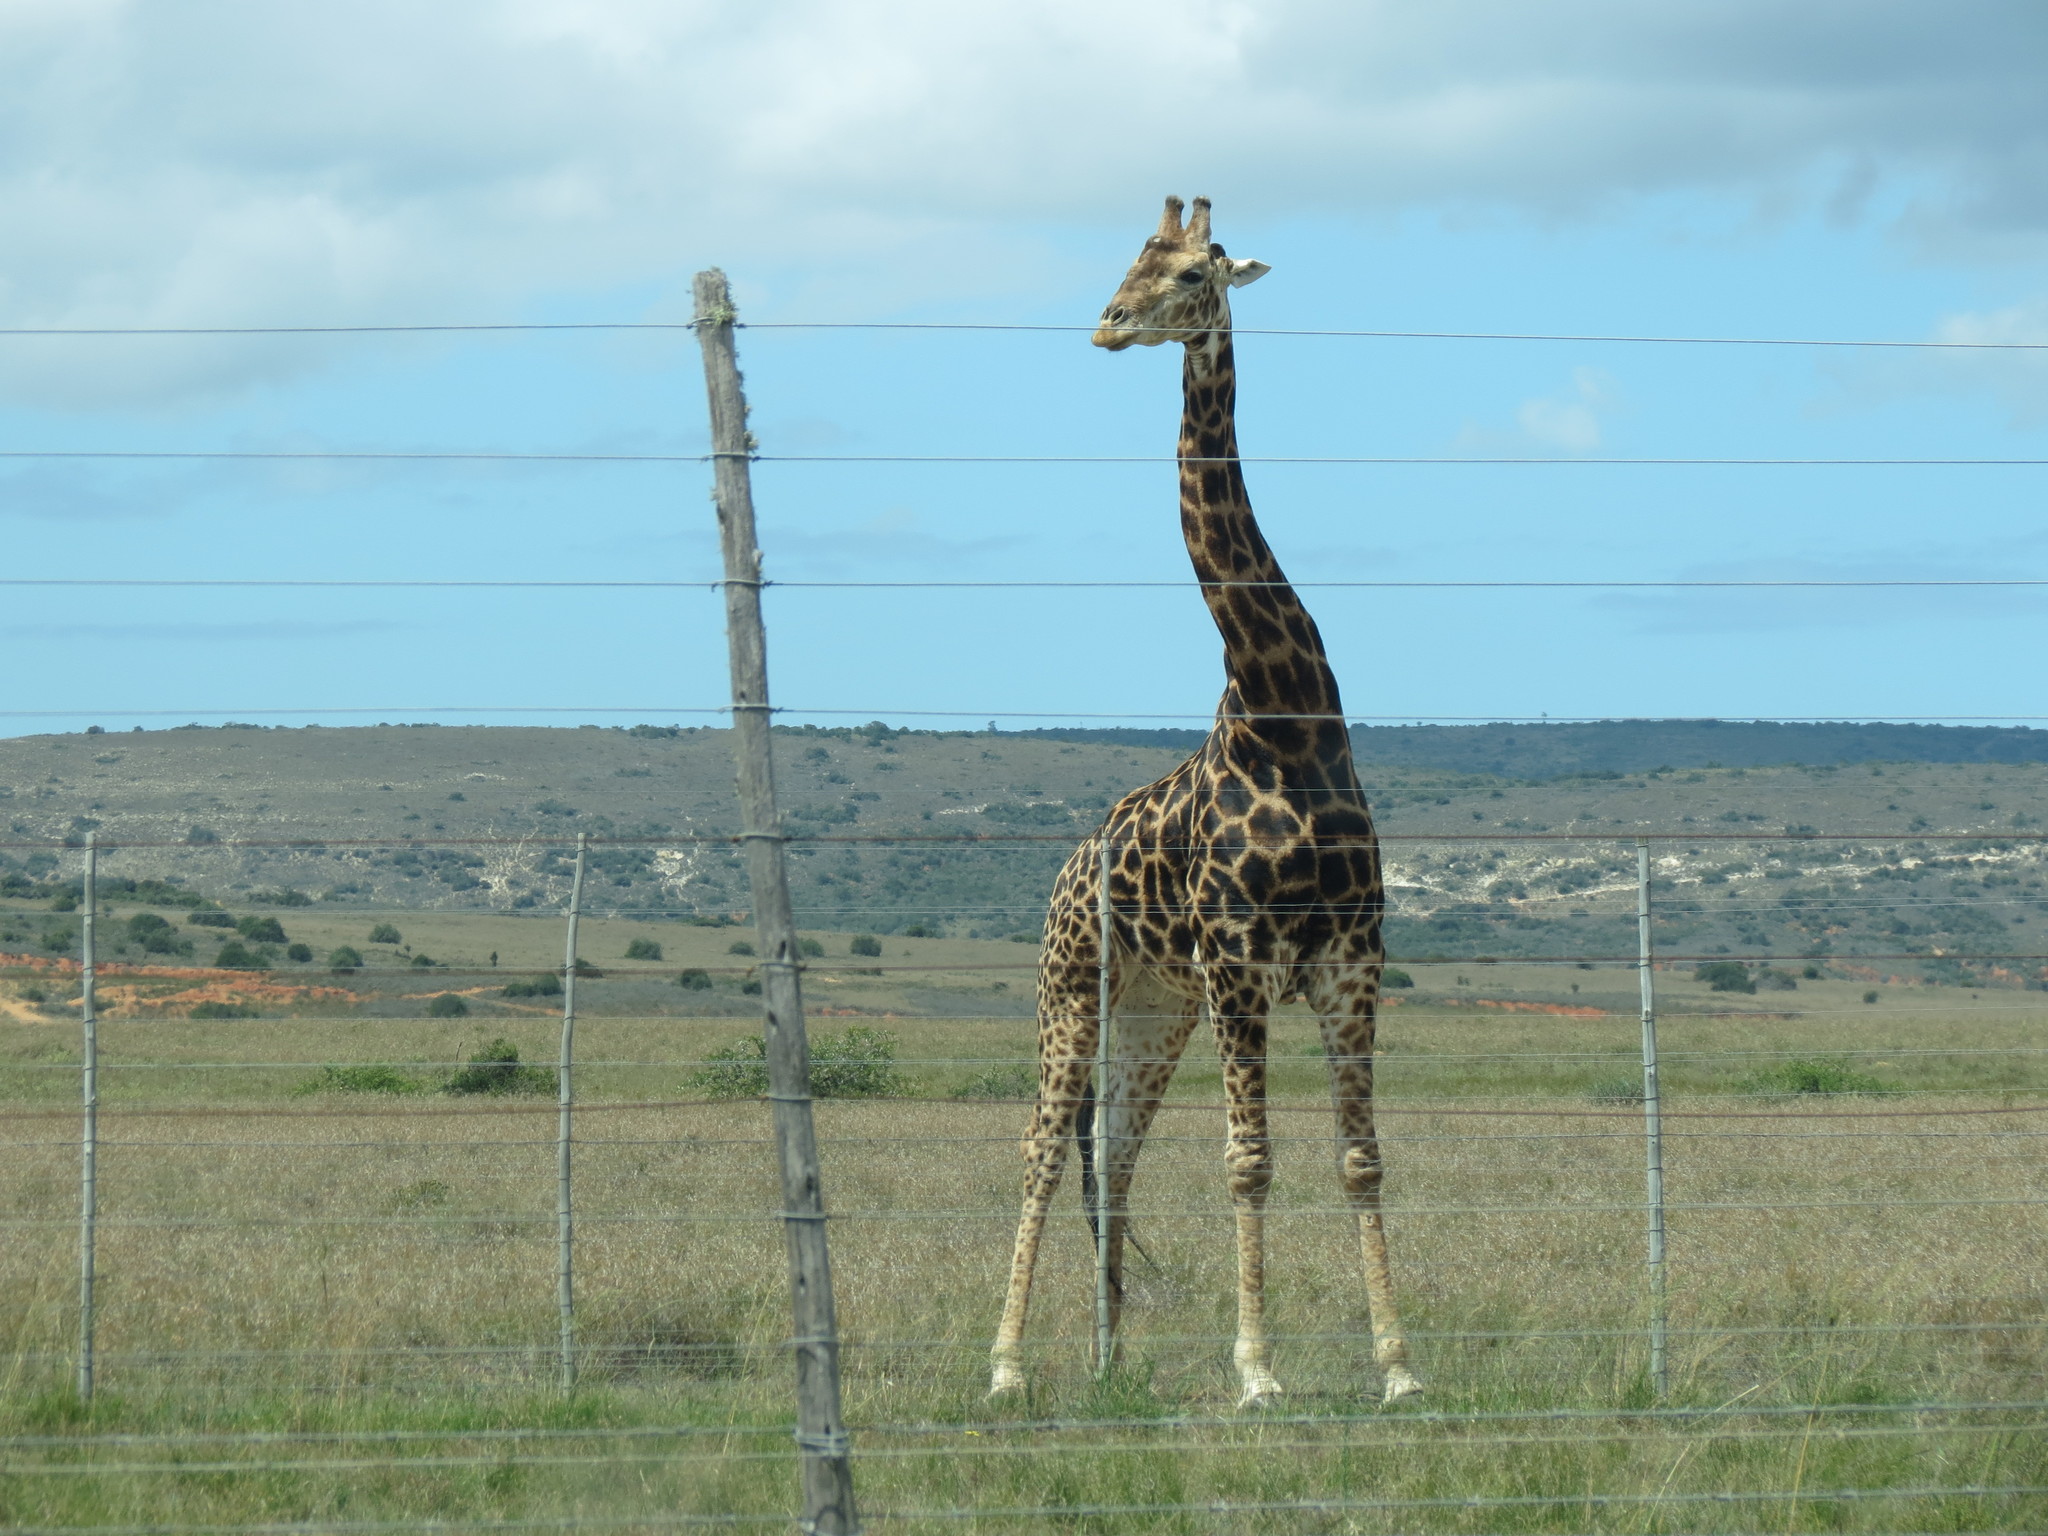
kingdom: Animalia
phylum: Chordata
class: Mammalia
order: Artiodactyla
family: Giraffidae
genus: Giraffa
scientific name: Giraffa giraffa
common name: Southern giraffe
